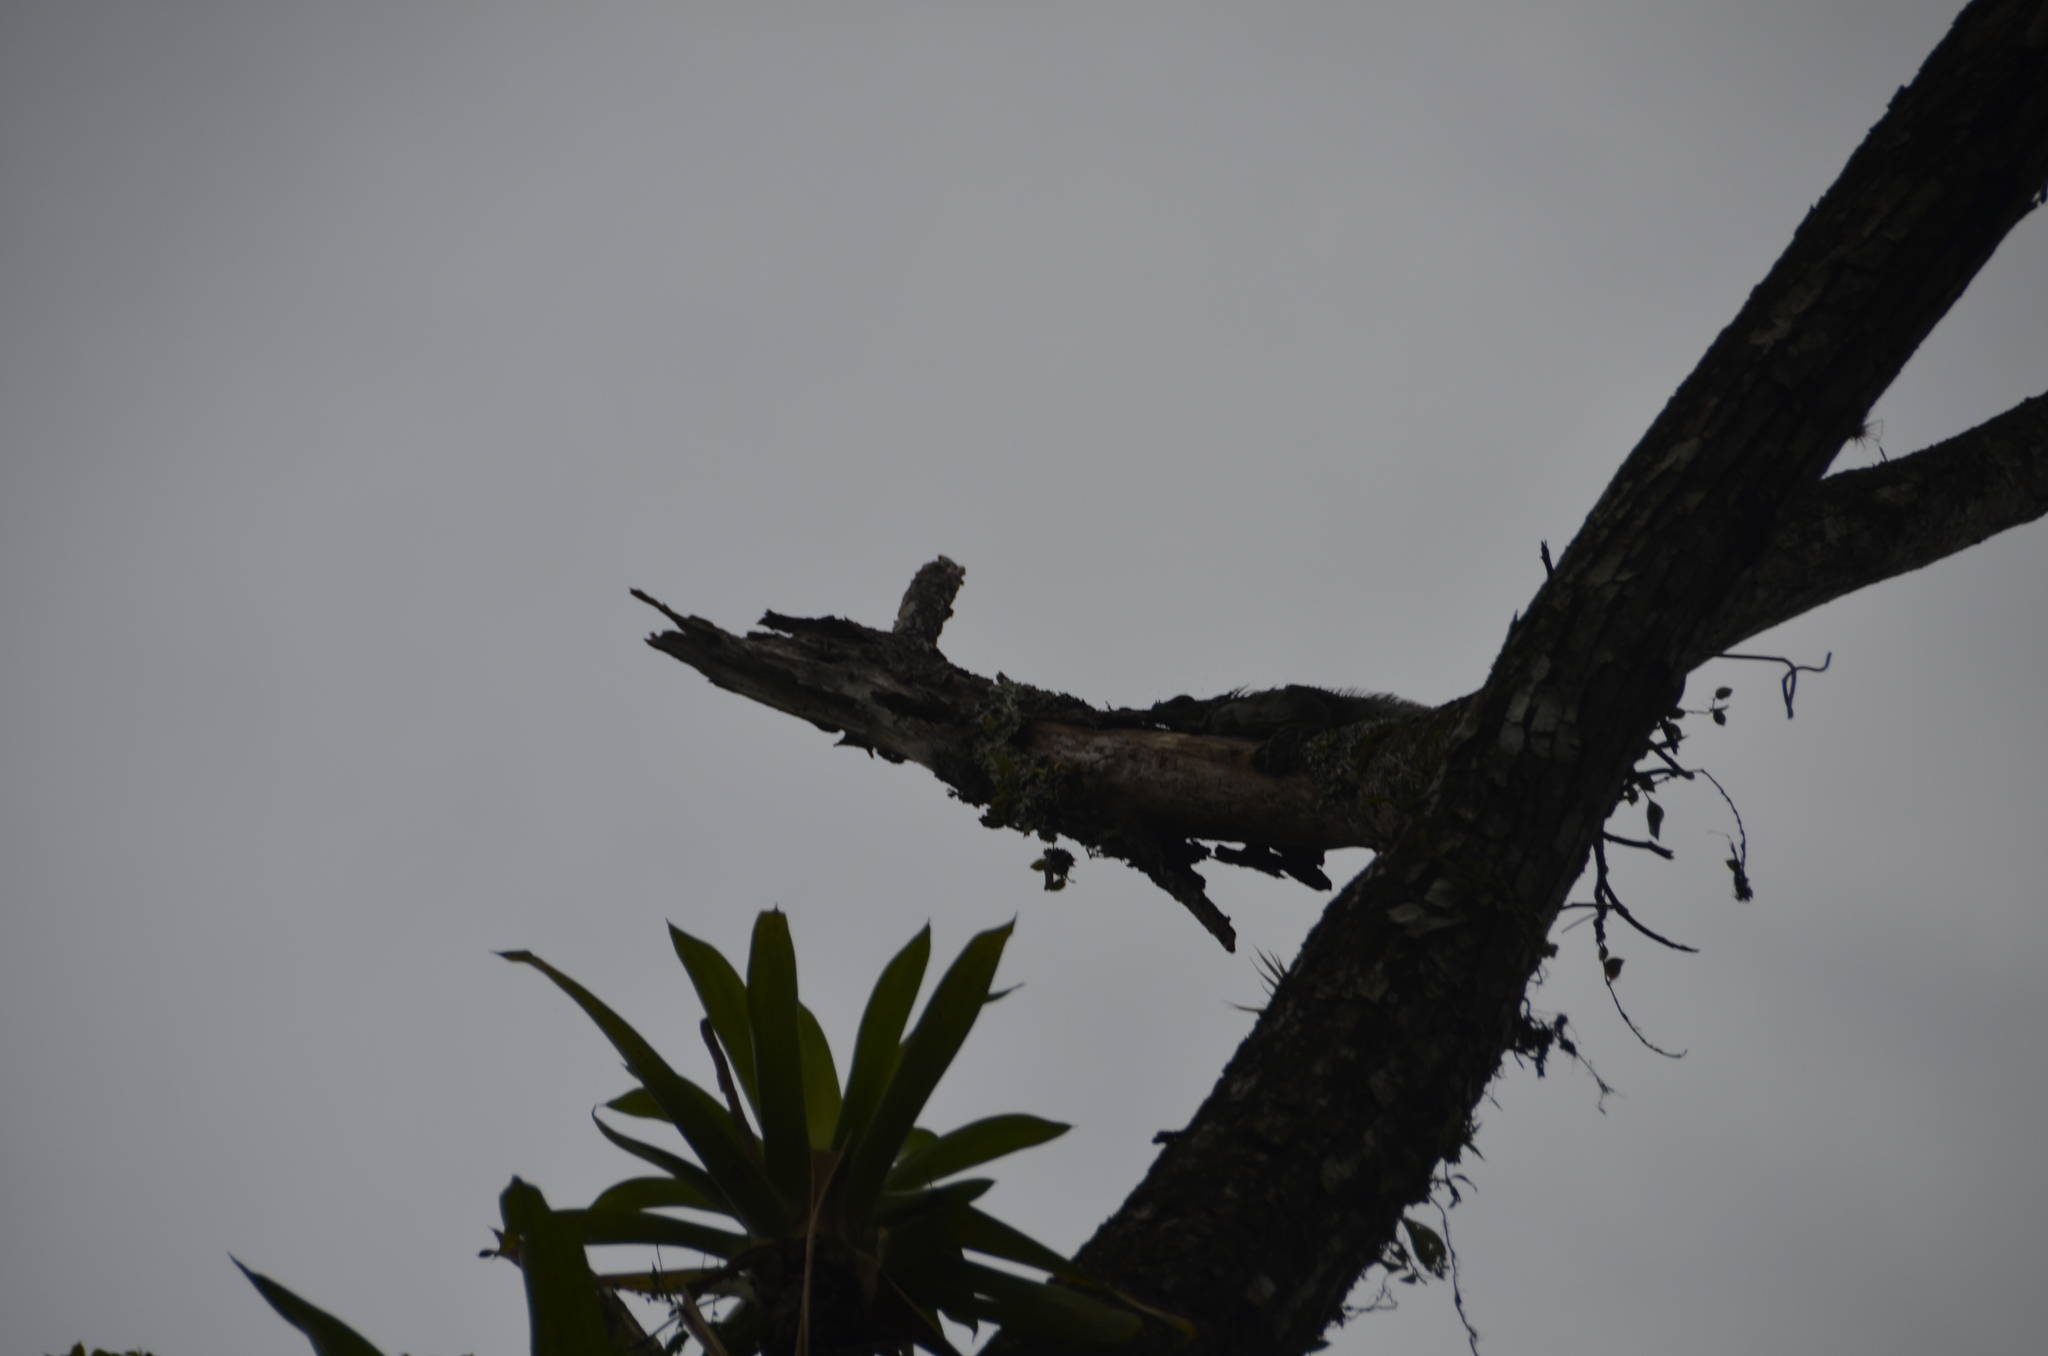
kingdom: Animalia
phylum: Chordata
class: Squamata
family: Iguanidae
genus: Iguana
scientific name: Iguana iguana
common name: Green iguana
